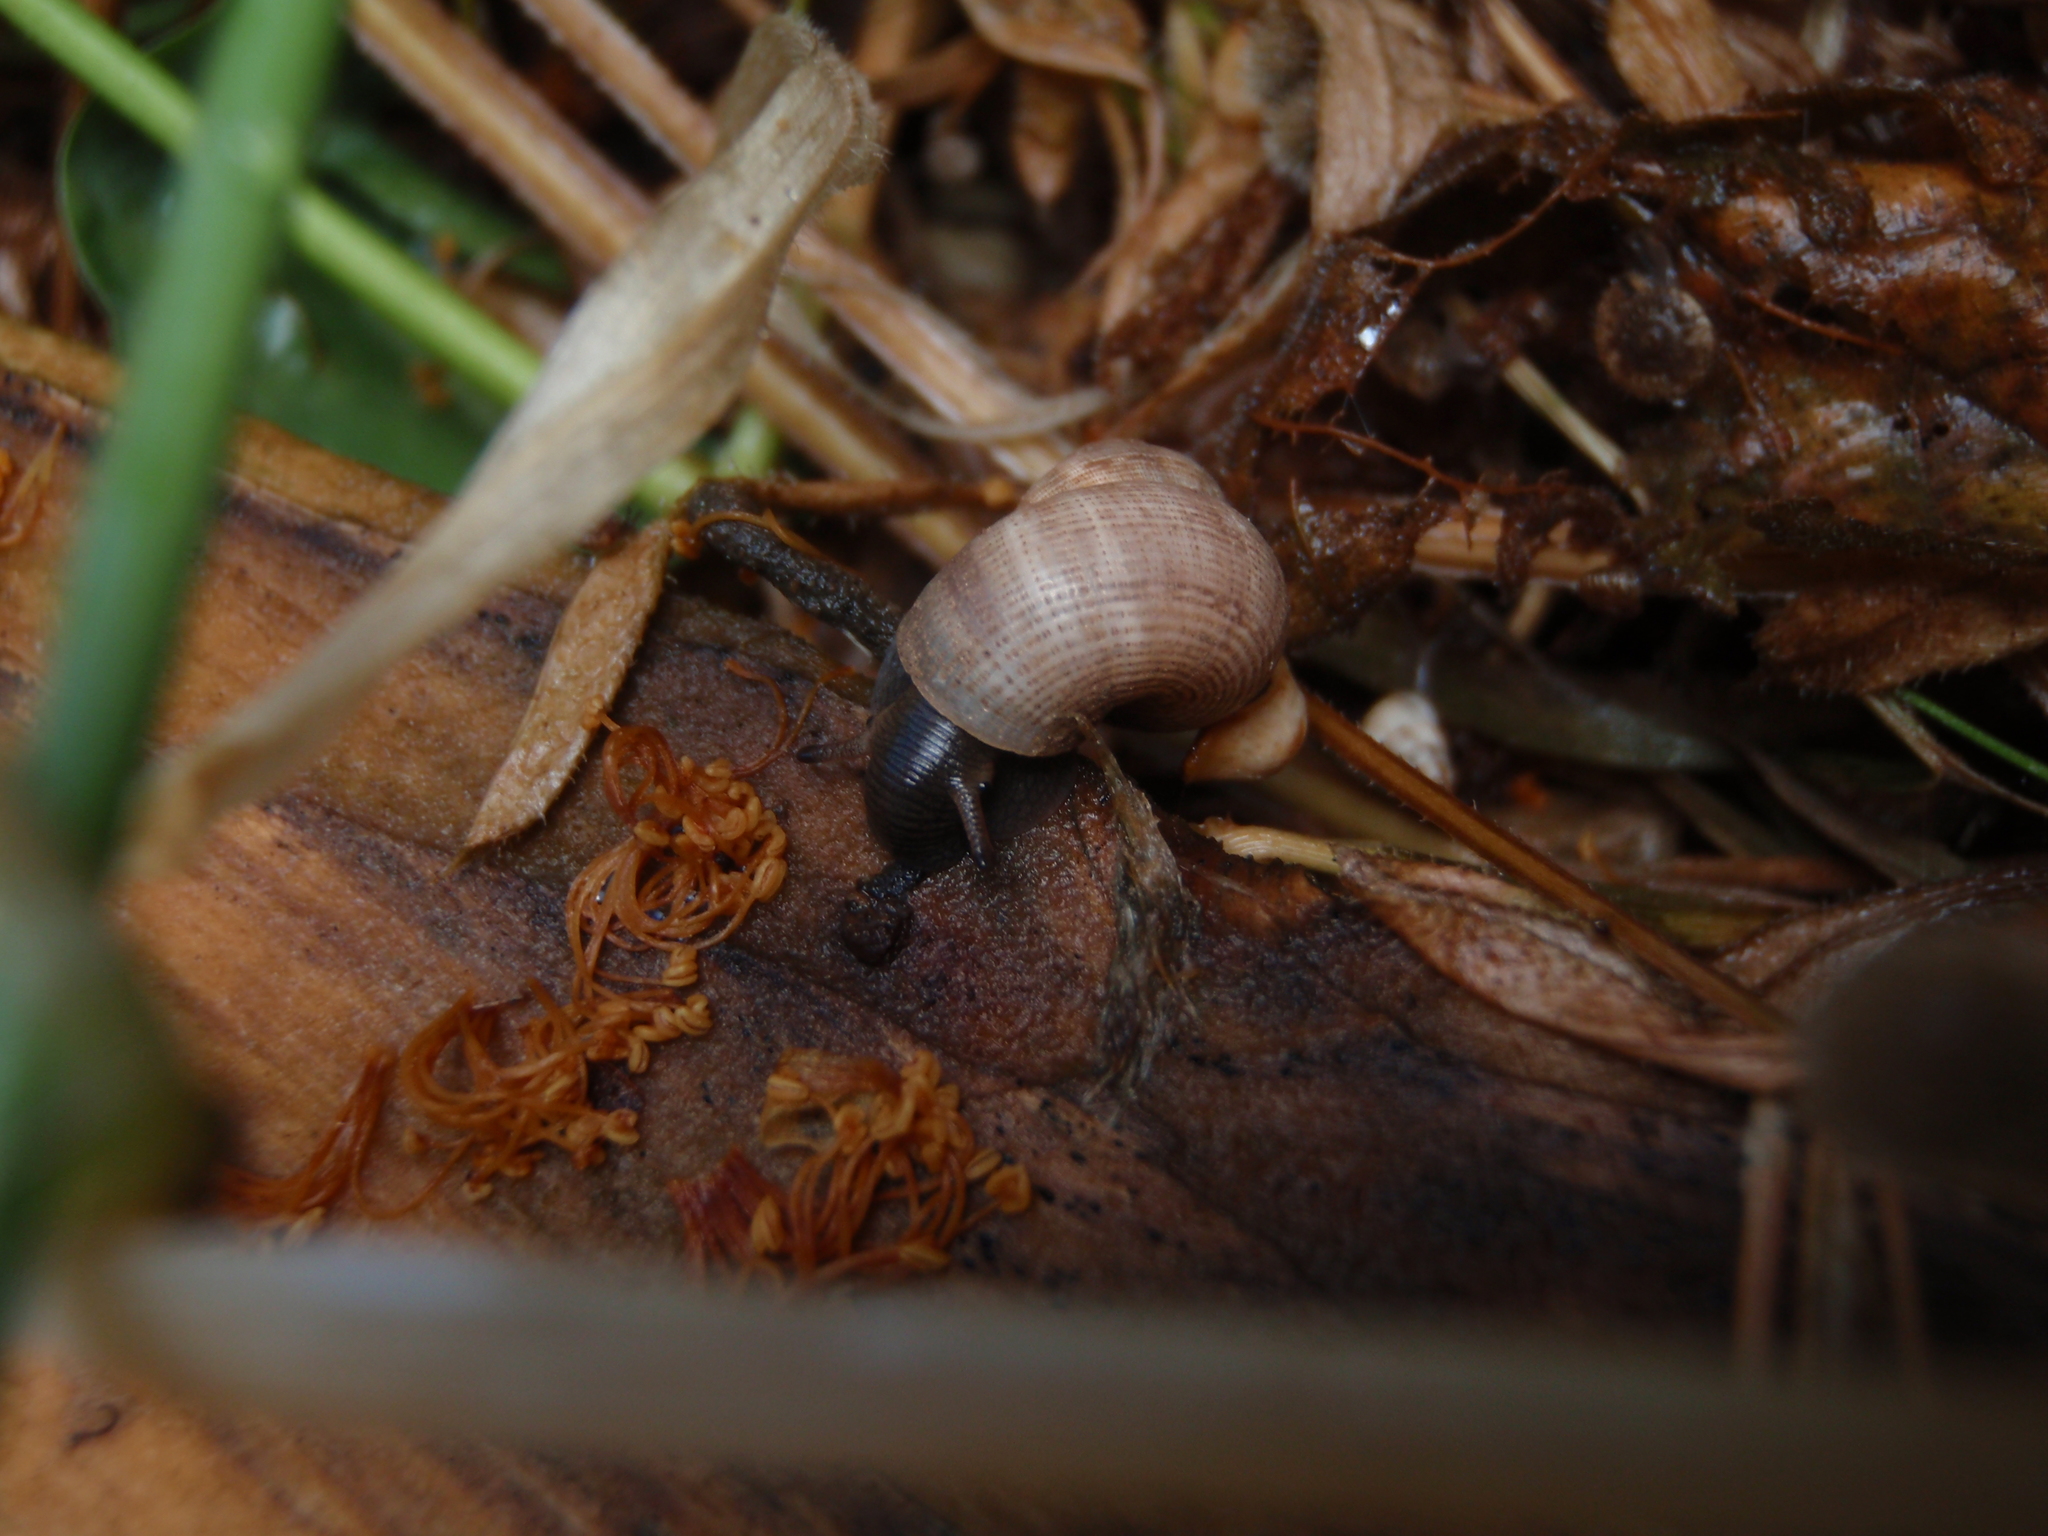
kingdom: Animalia
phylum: Mollusca
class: Gastropoda
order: Littorinimorpha
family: Pomatiidae
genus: Pomatias
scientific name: Pomatias elegans
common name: Red-mouthed snail
